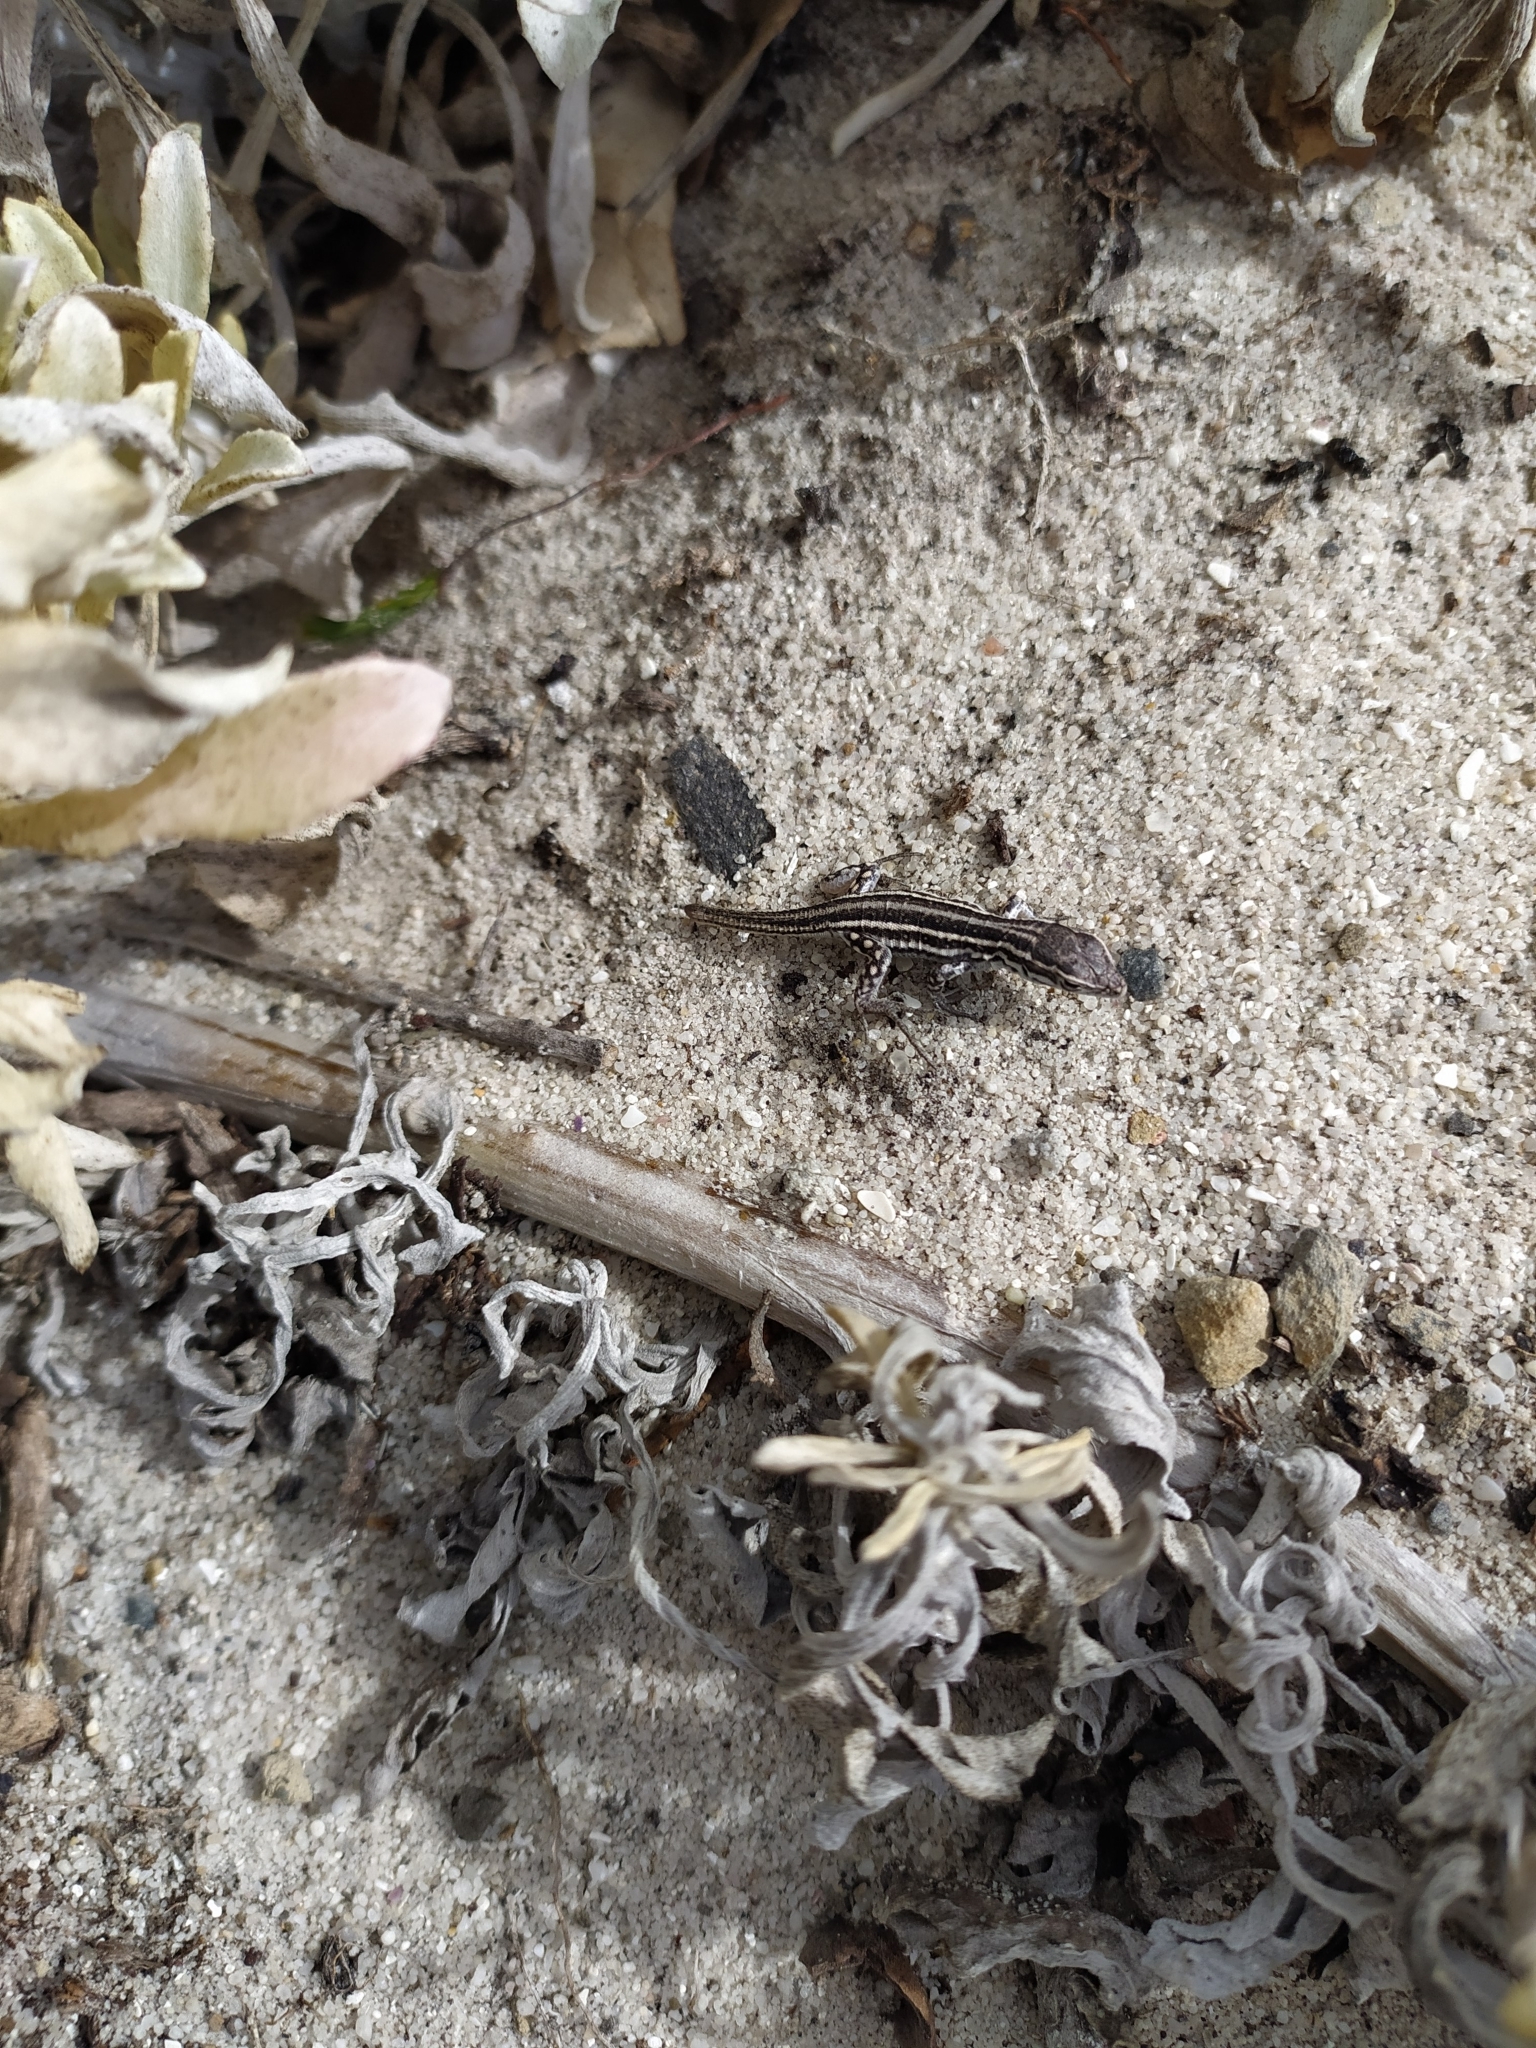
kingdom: Animalia
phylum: Chordata
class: Squamata
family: Lacertidae
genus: Meroles
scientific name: Meroles knoxii
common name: Knox's desert lizard
